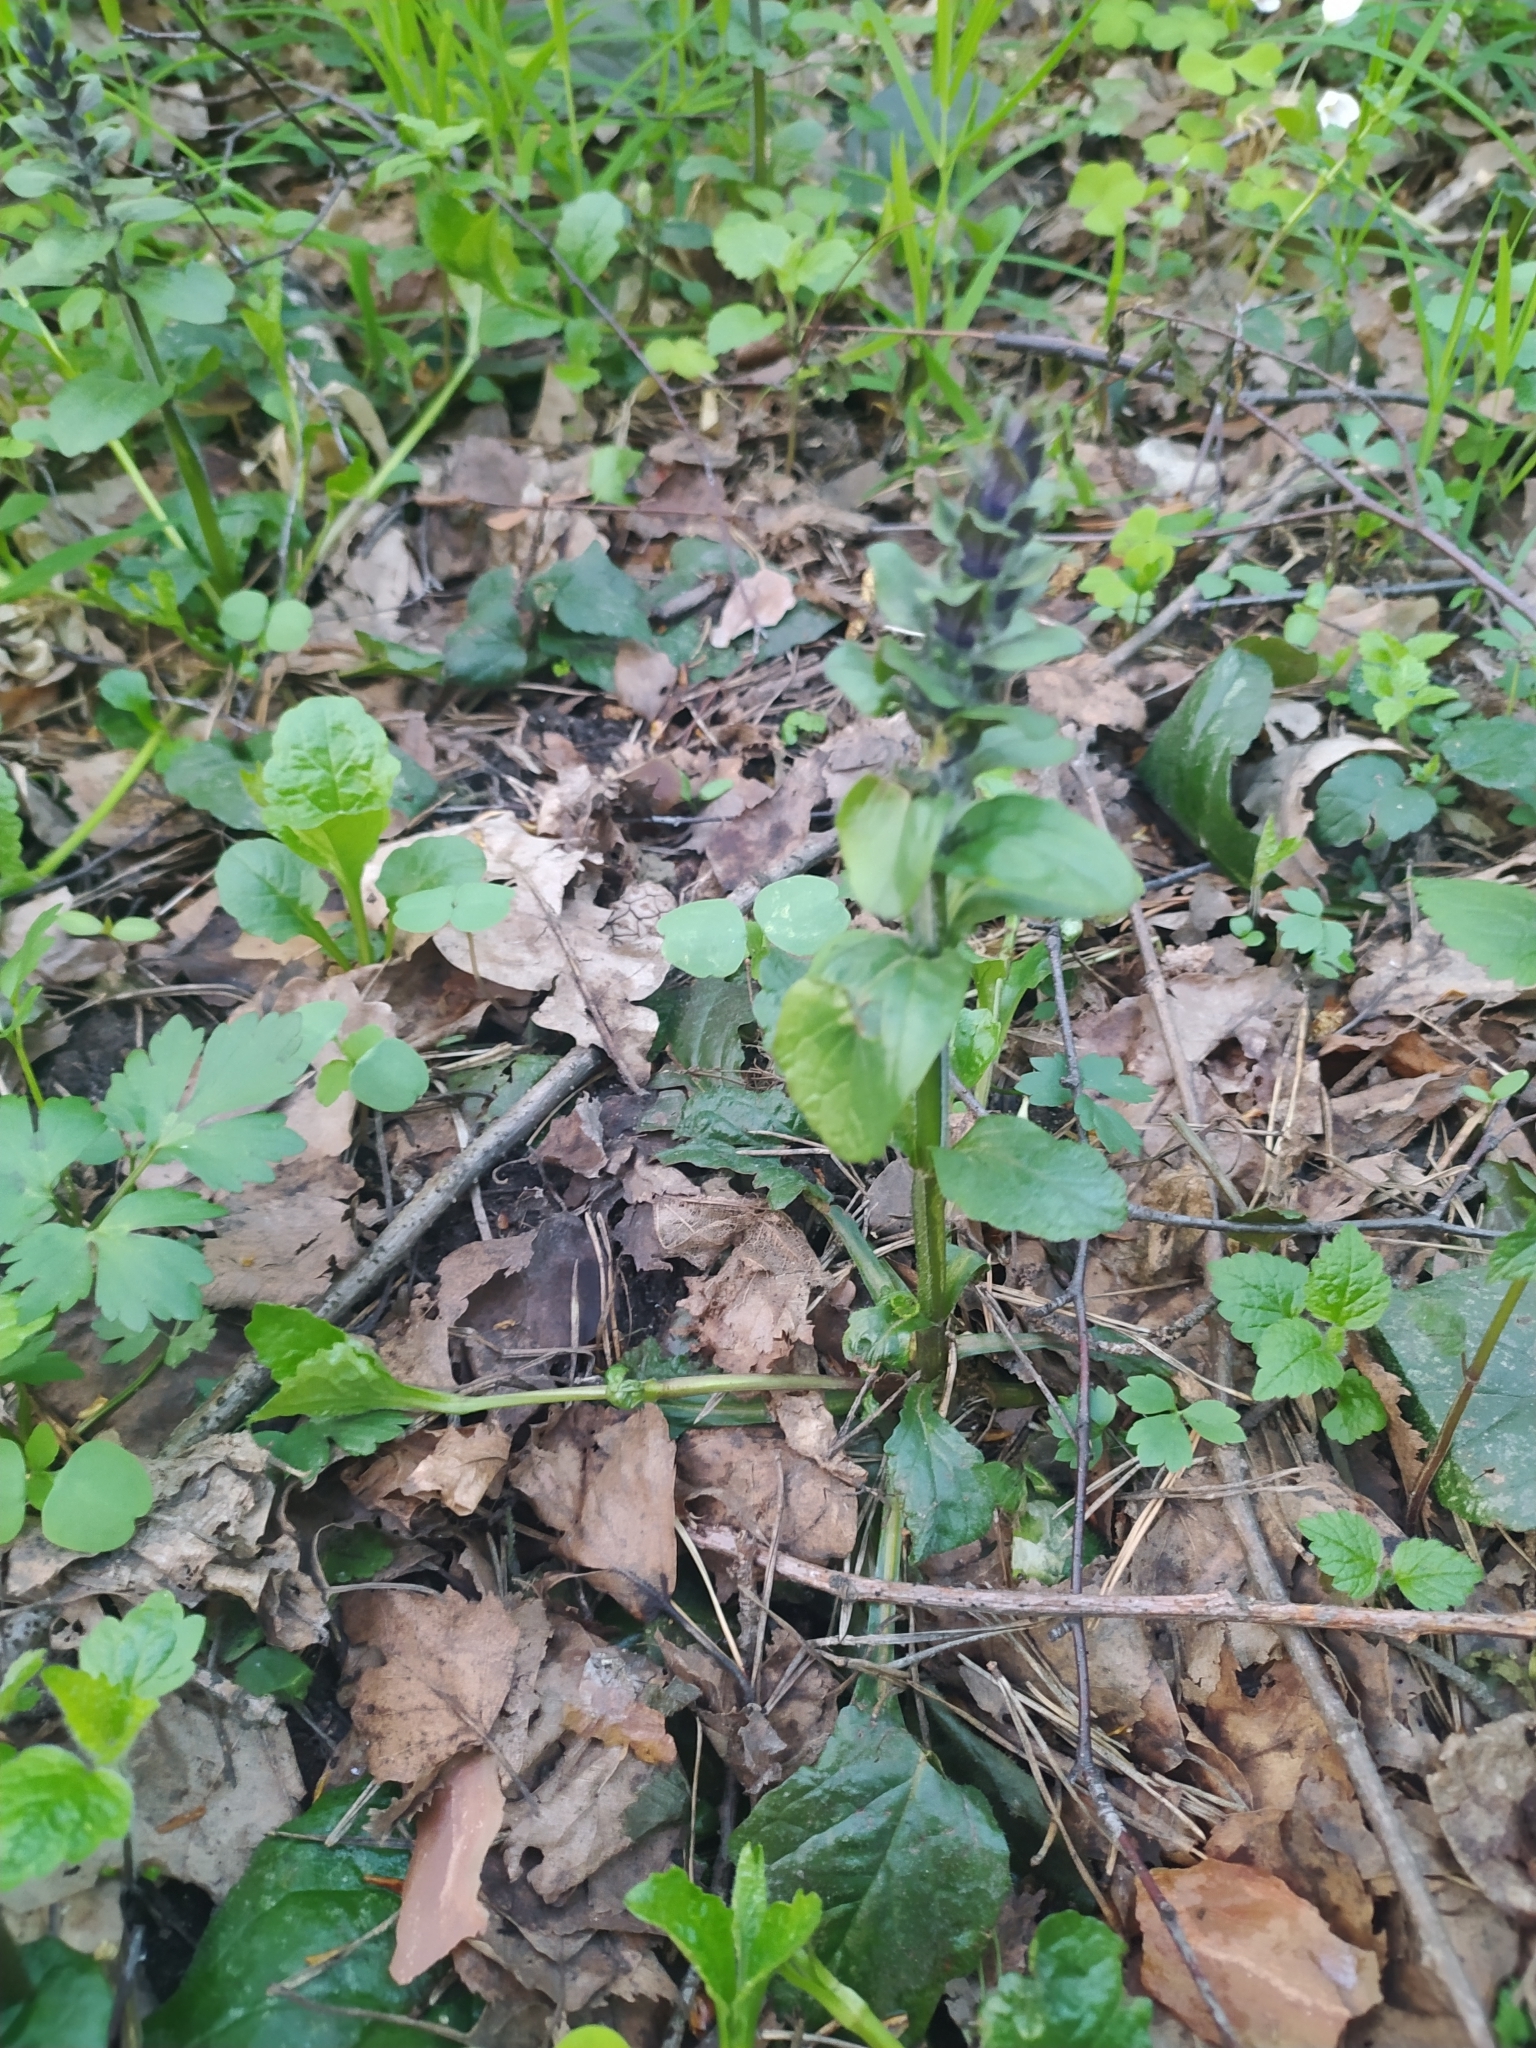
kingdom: Plantae
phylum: Tracheophyta
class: Magnoliopsida
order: Lamiales
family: Lamiaceae
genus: Ajuga
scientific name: Ajuga reptans
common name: Bugle
